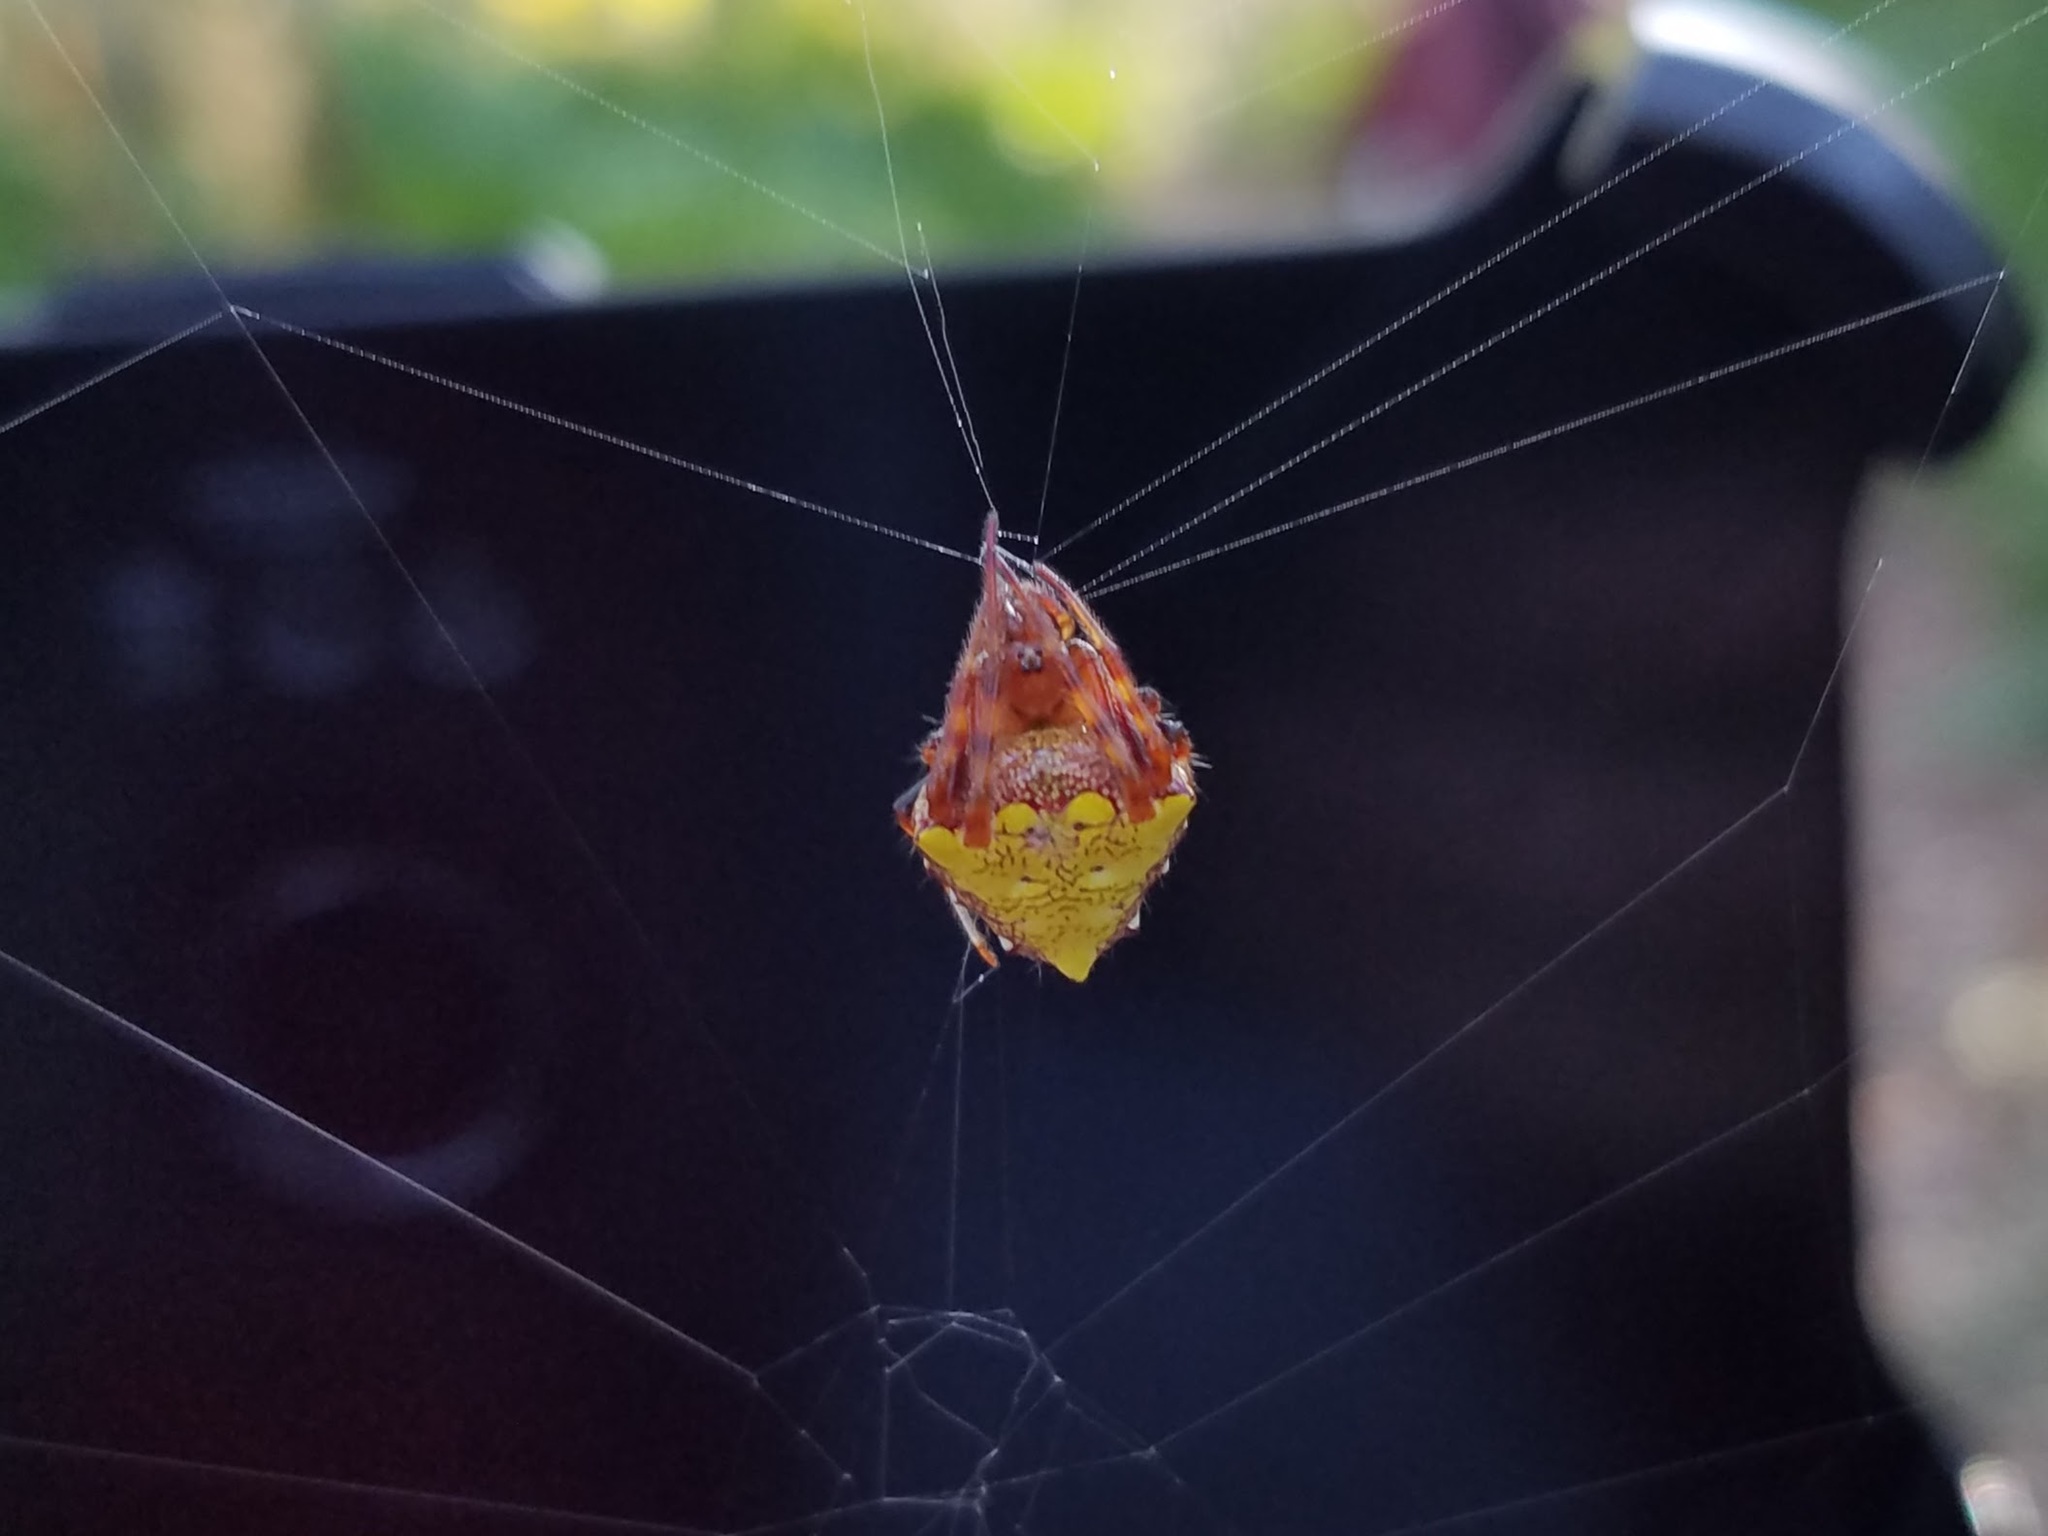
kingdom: Animalia
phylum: Arthropoda
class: Arachnida
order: Araneae
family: Araneidae
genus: Verrucosa
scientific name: Verrucosa arenata
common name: Orb weavers
